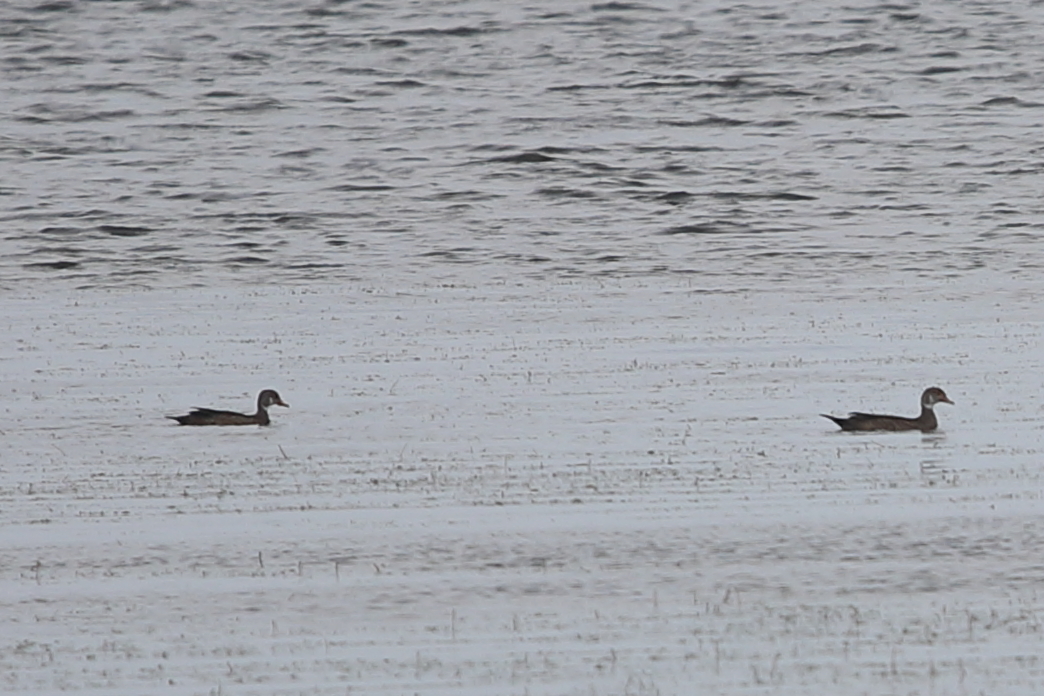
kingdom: Animalia
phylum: Chordata
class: Aves
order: Anseriformes
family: Anatidae
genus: Aix
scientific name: Aix sponsa
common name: Wood duck
